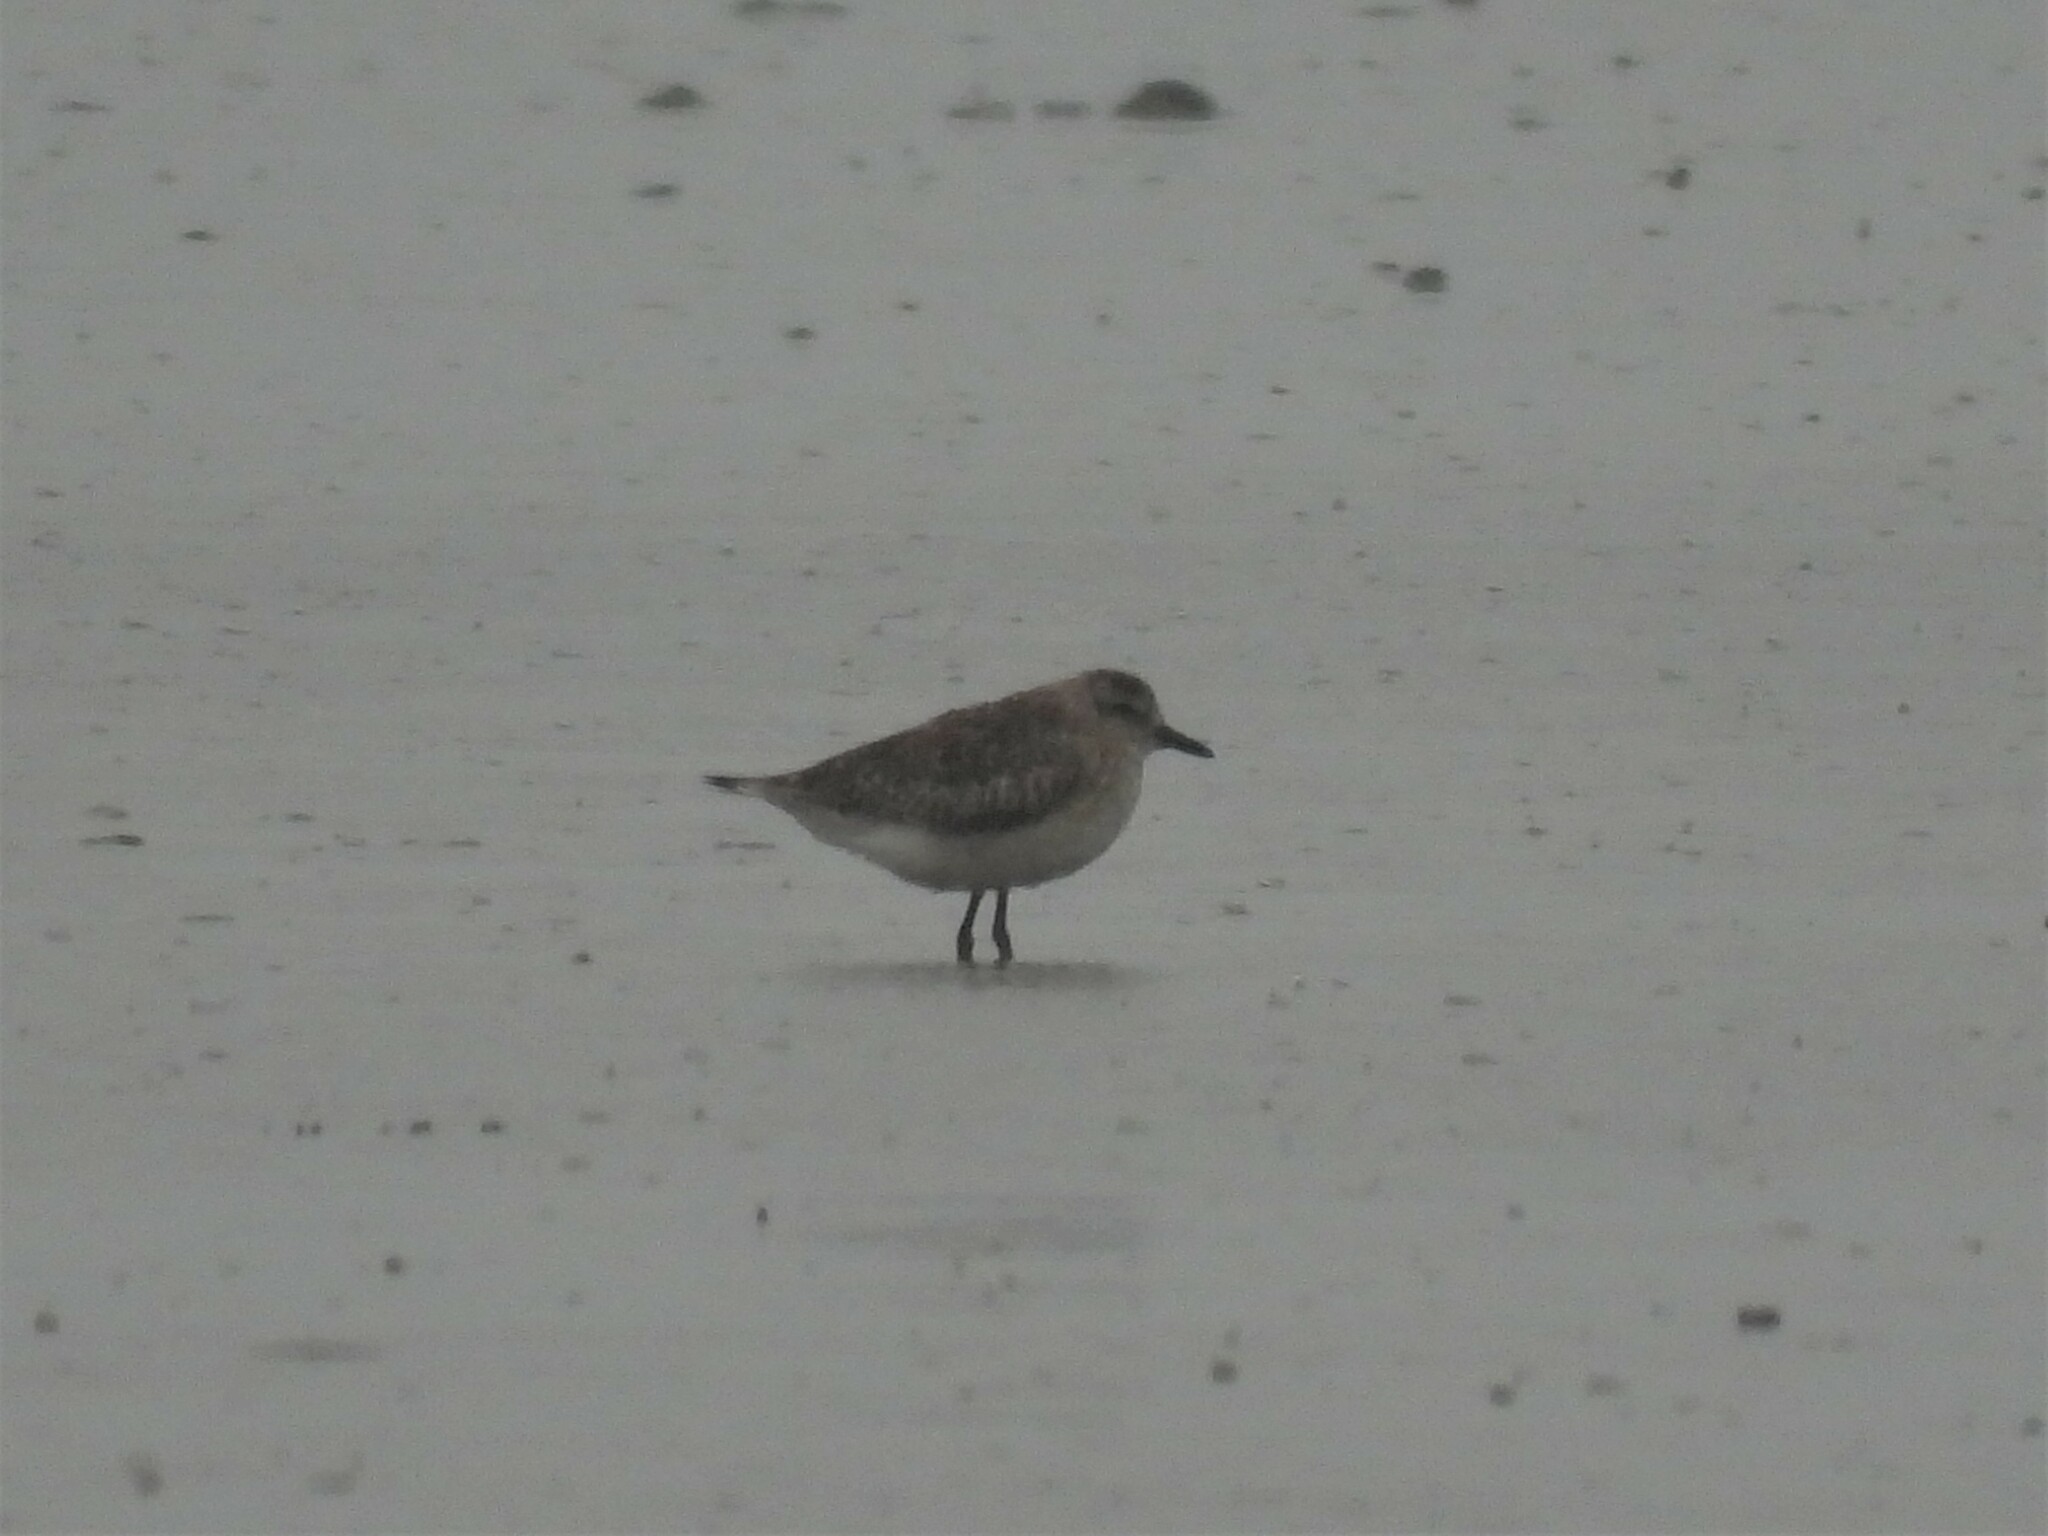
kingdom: Animalia
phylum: Chordata
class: Aves
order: Charadriiformes
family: Charadriidae
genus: Pluvialis
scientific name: Pluvialis squatarola
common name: Grey plover
